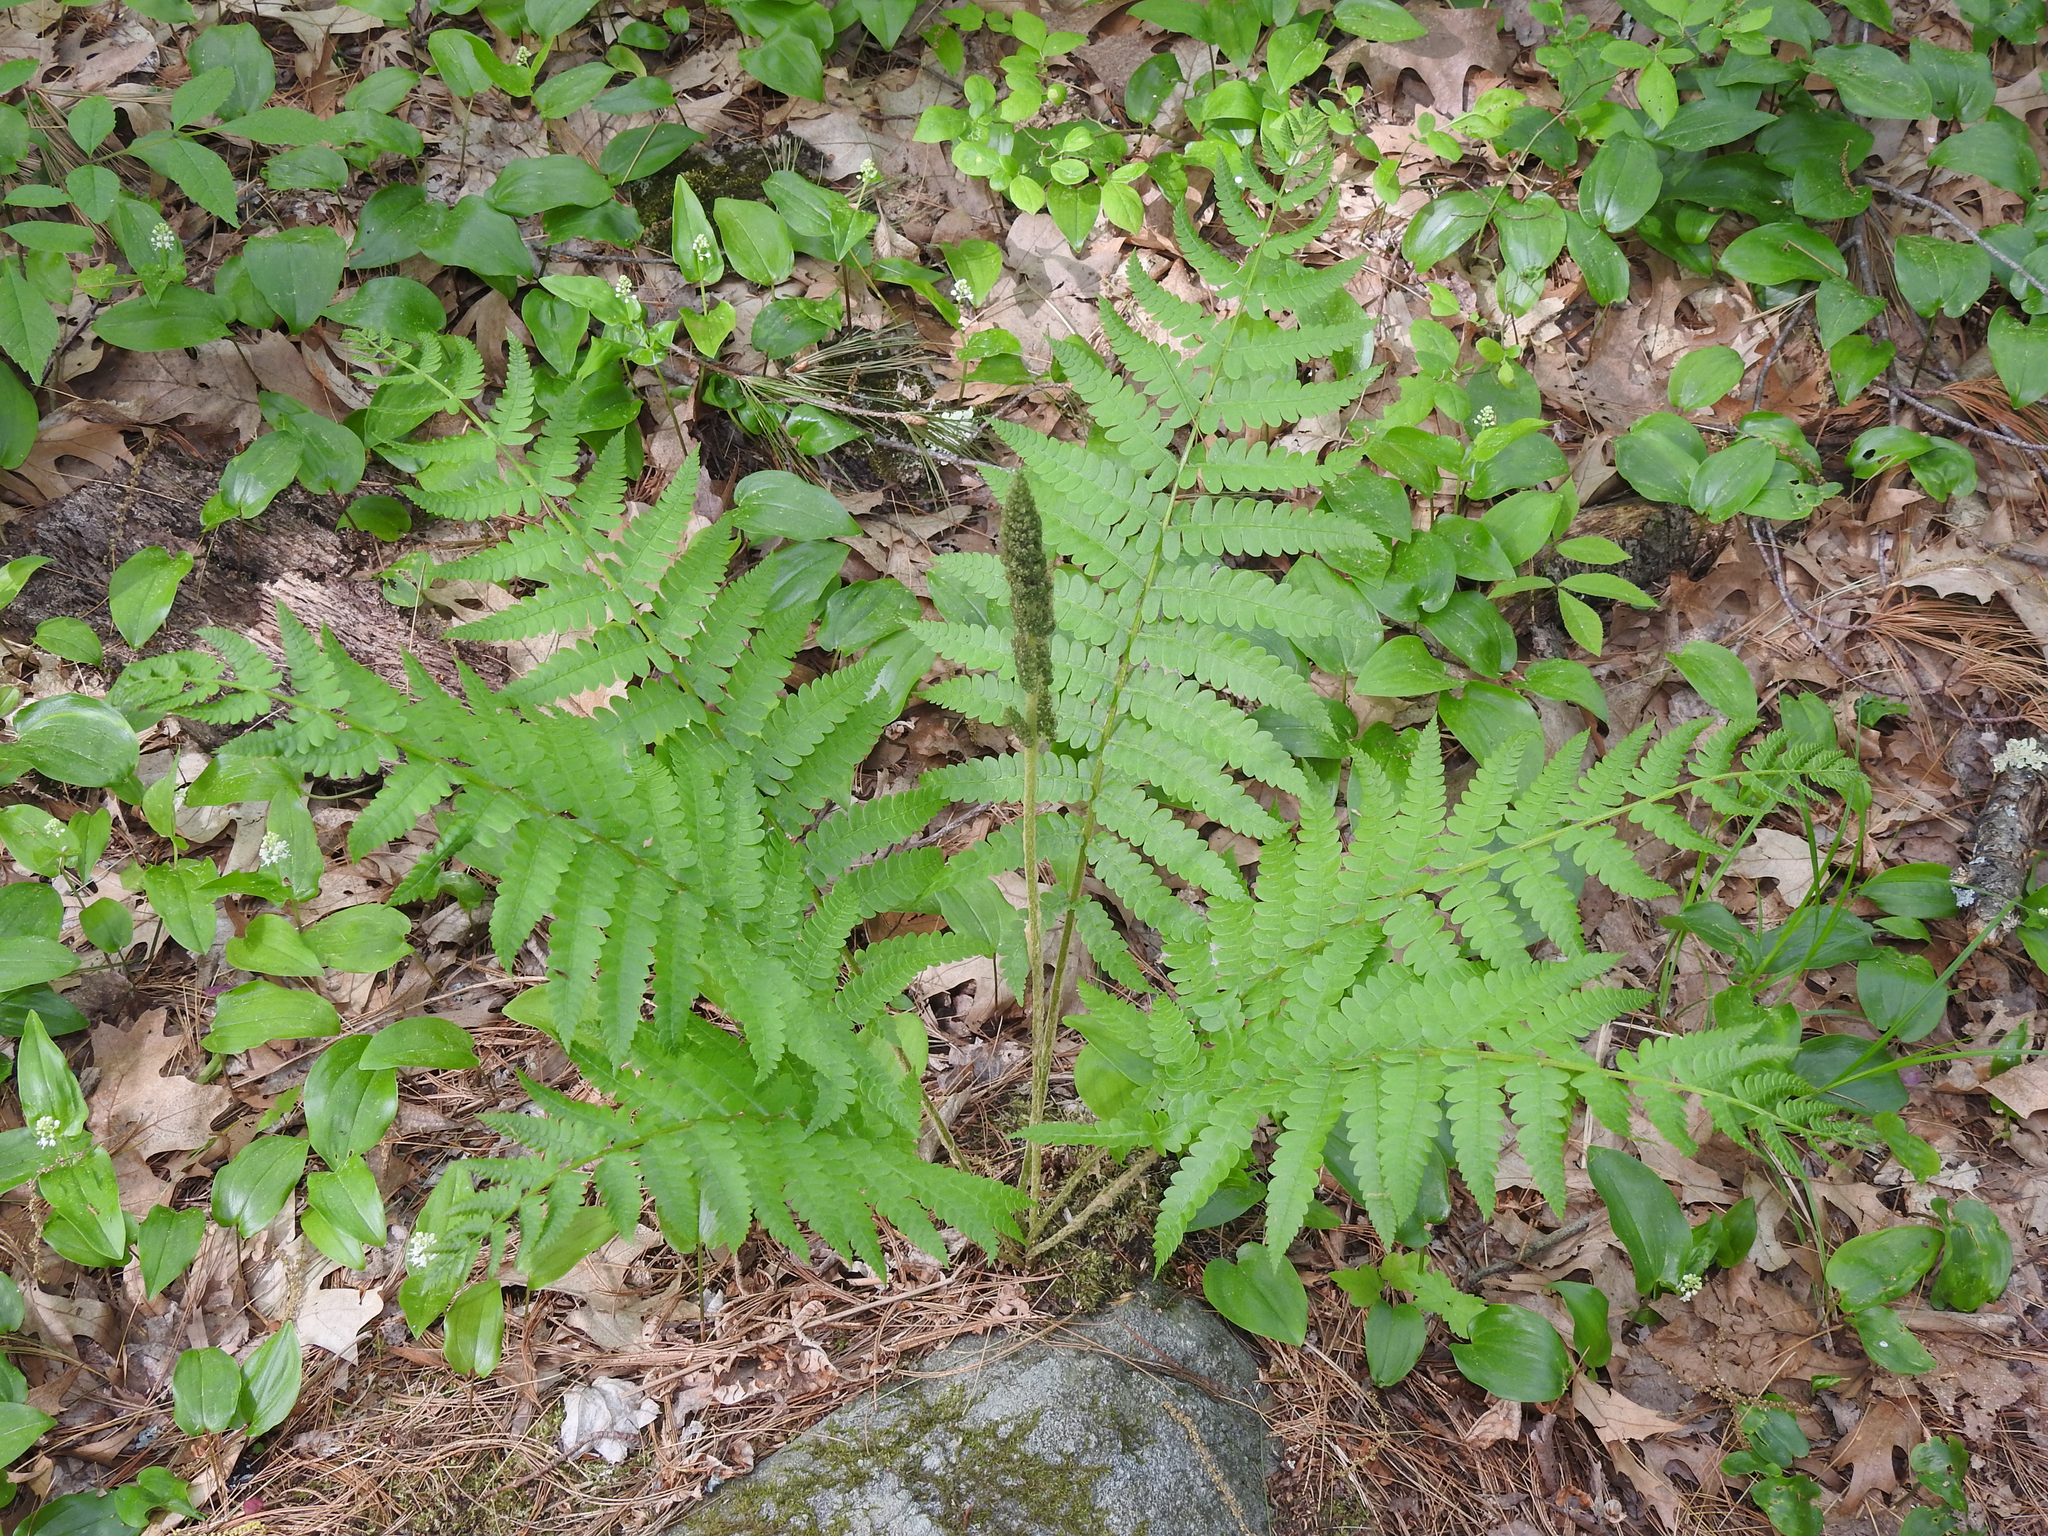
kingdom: Plantae
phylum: Tracheophyta
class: Polypodiopsida
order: Osmundales
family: Osmundaceae
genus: Osmundastrum
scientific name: Osmundastrum cinnamomeum
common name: Cinnamon fern
